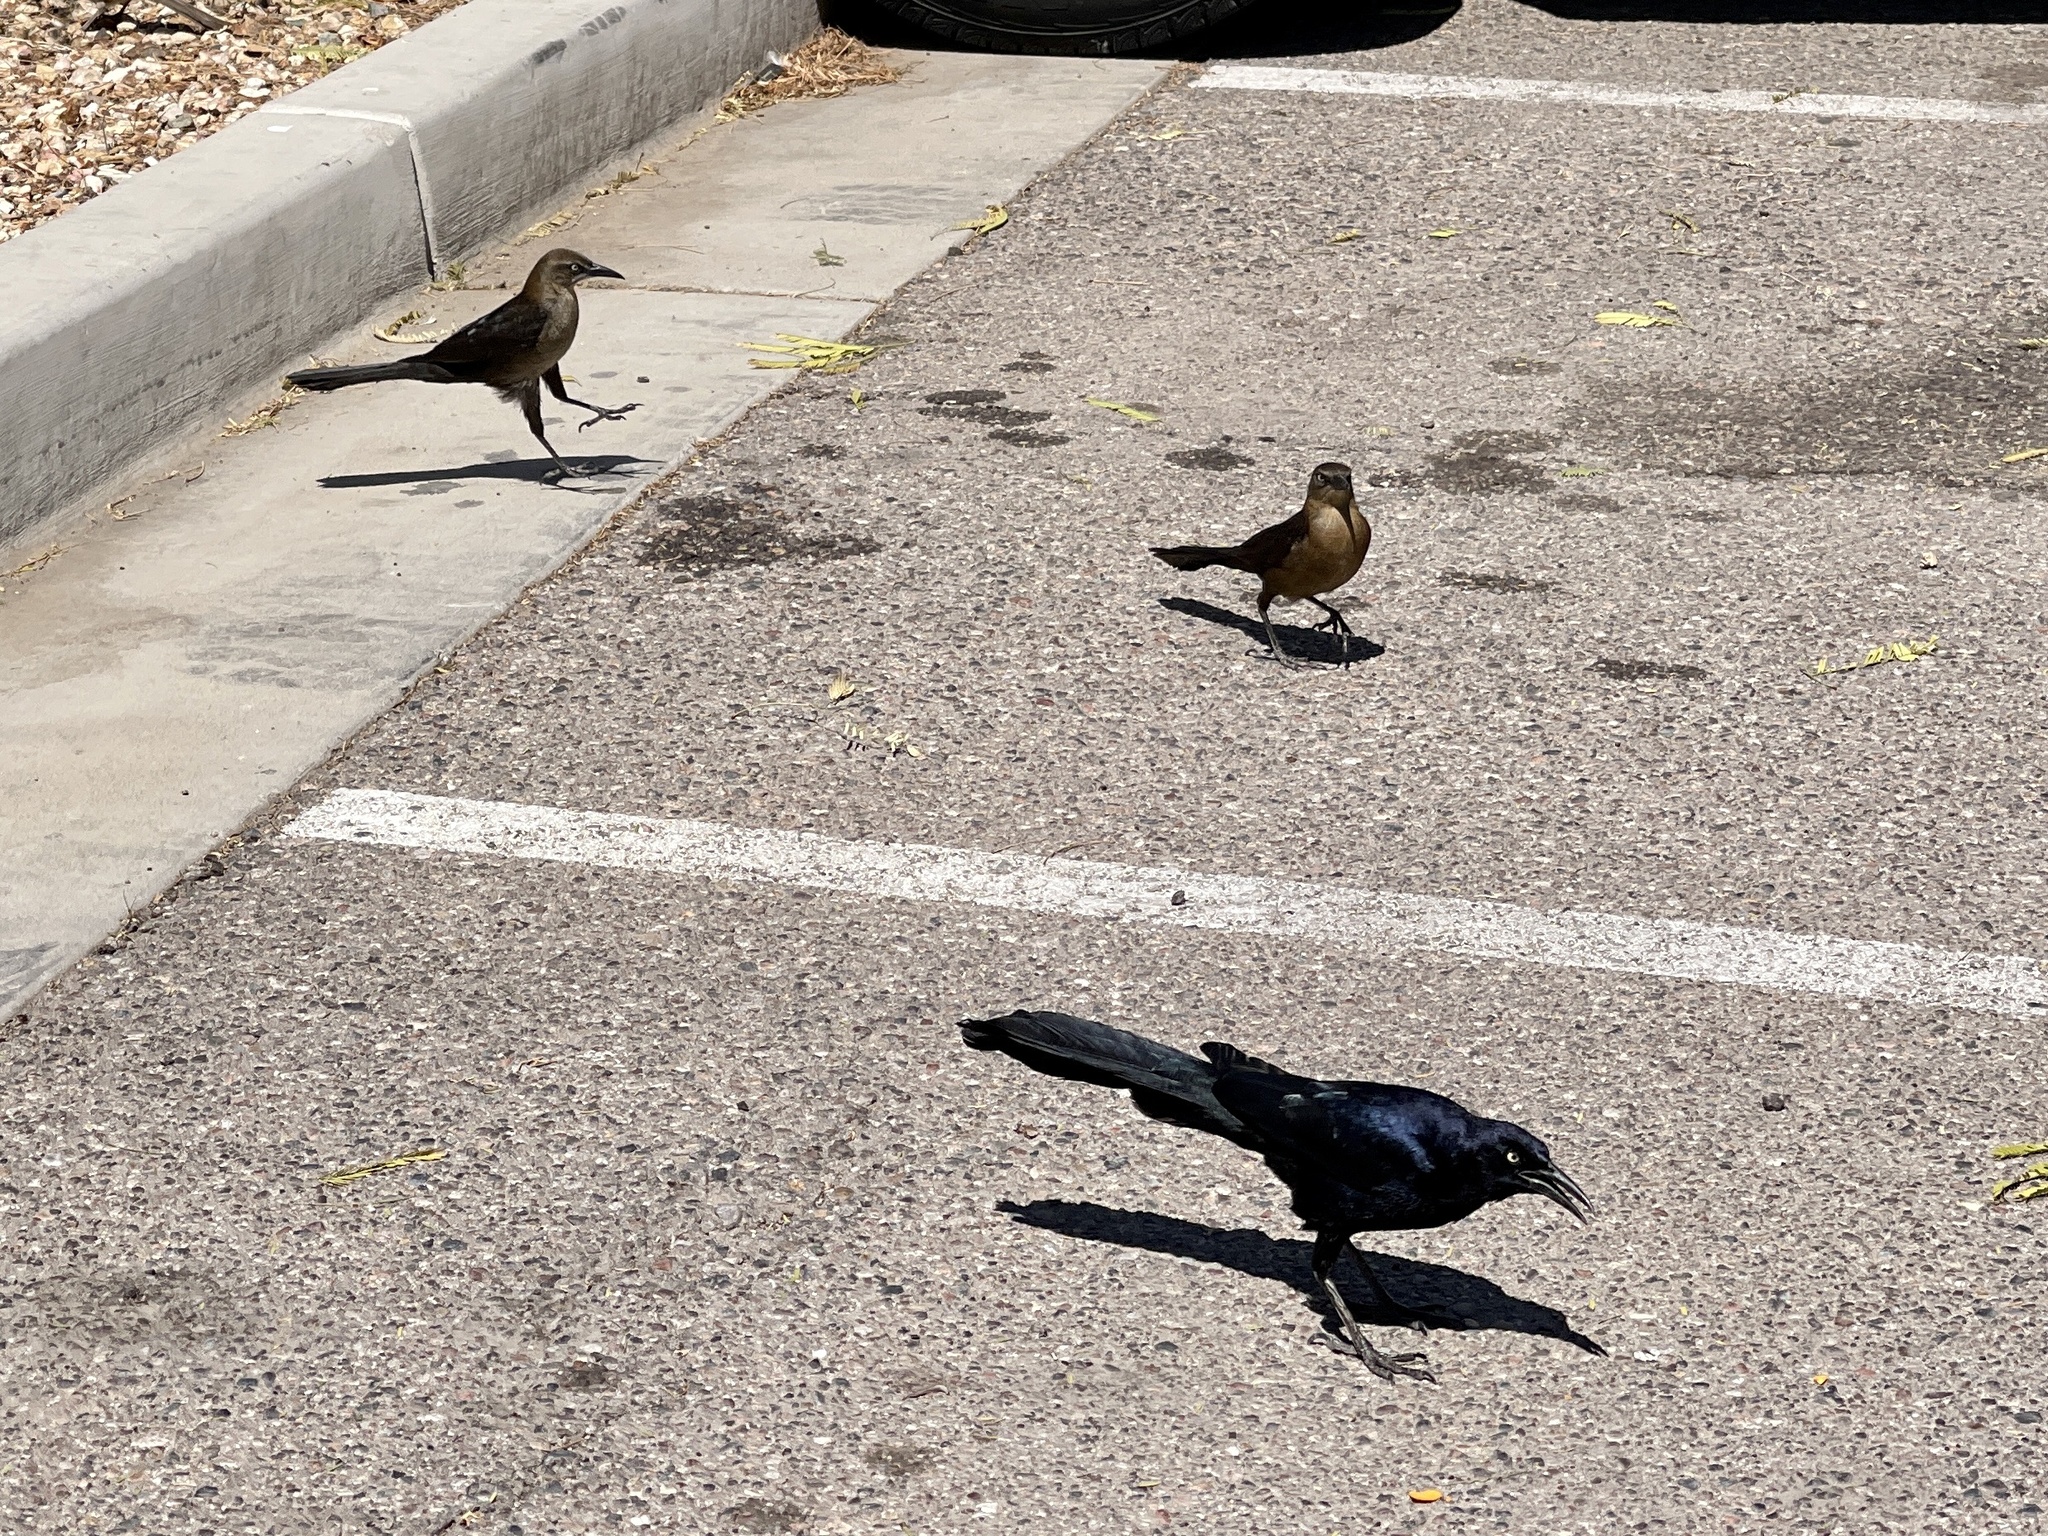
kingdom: Animalia
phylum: Chordata
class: Aves
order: Passeriformes
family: Icteridae
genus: Quiscalus
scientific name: Quiscalus mexicanus
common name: Great-tailed grackle
